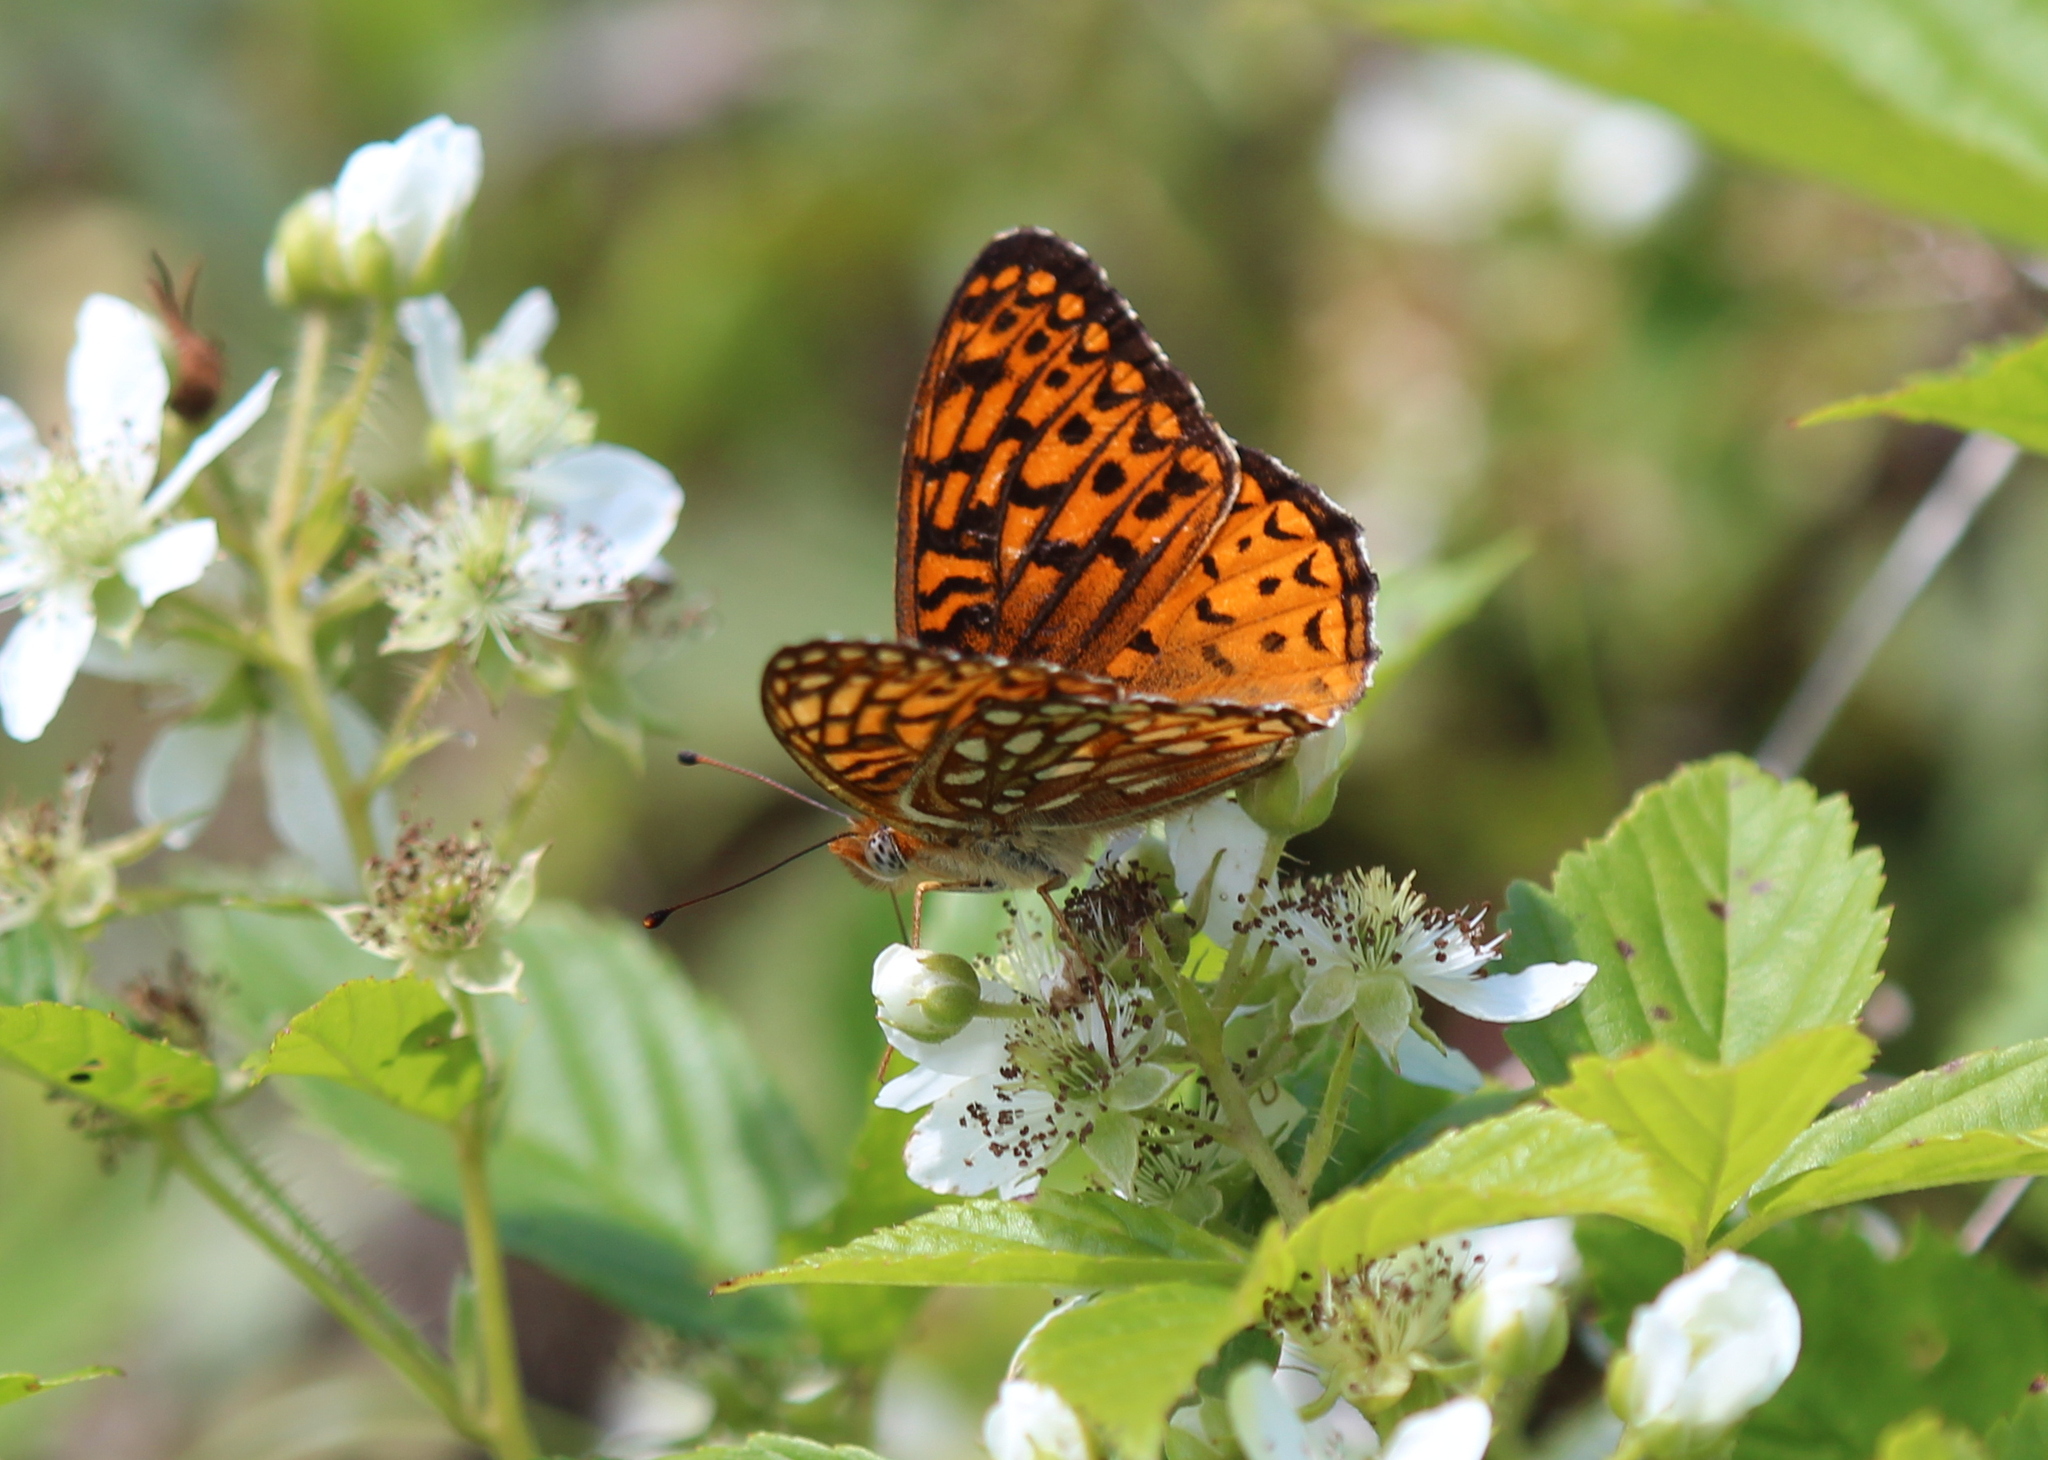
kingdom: Animalia
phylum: Arthropoda
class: Insecta
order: Lepidoptera
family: Nymphalidae
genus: Speyeria
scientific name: Speyeria atlantis
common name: Atlantis fritillary
